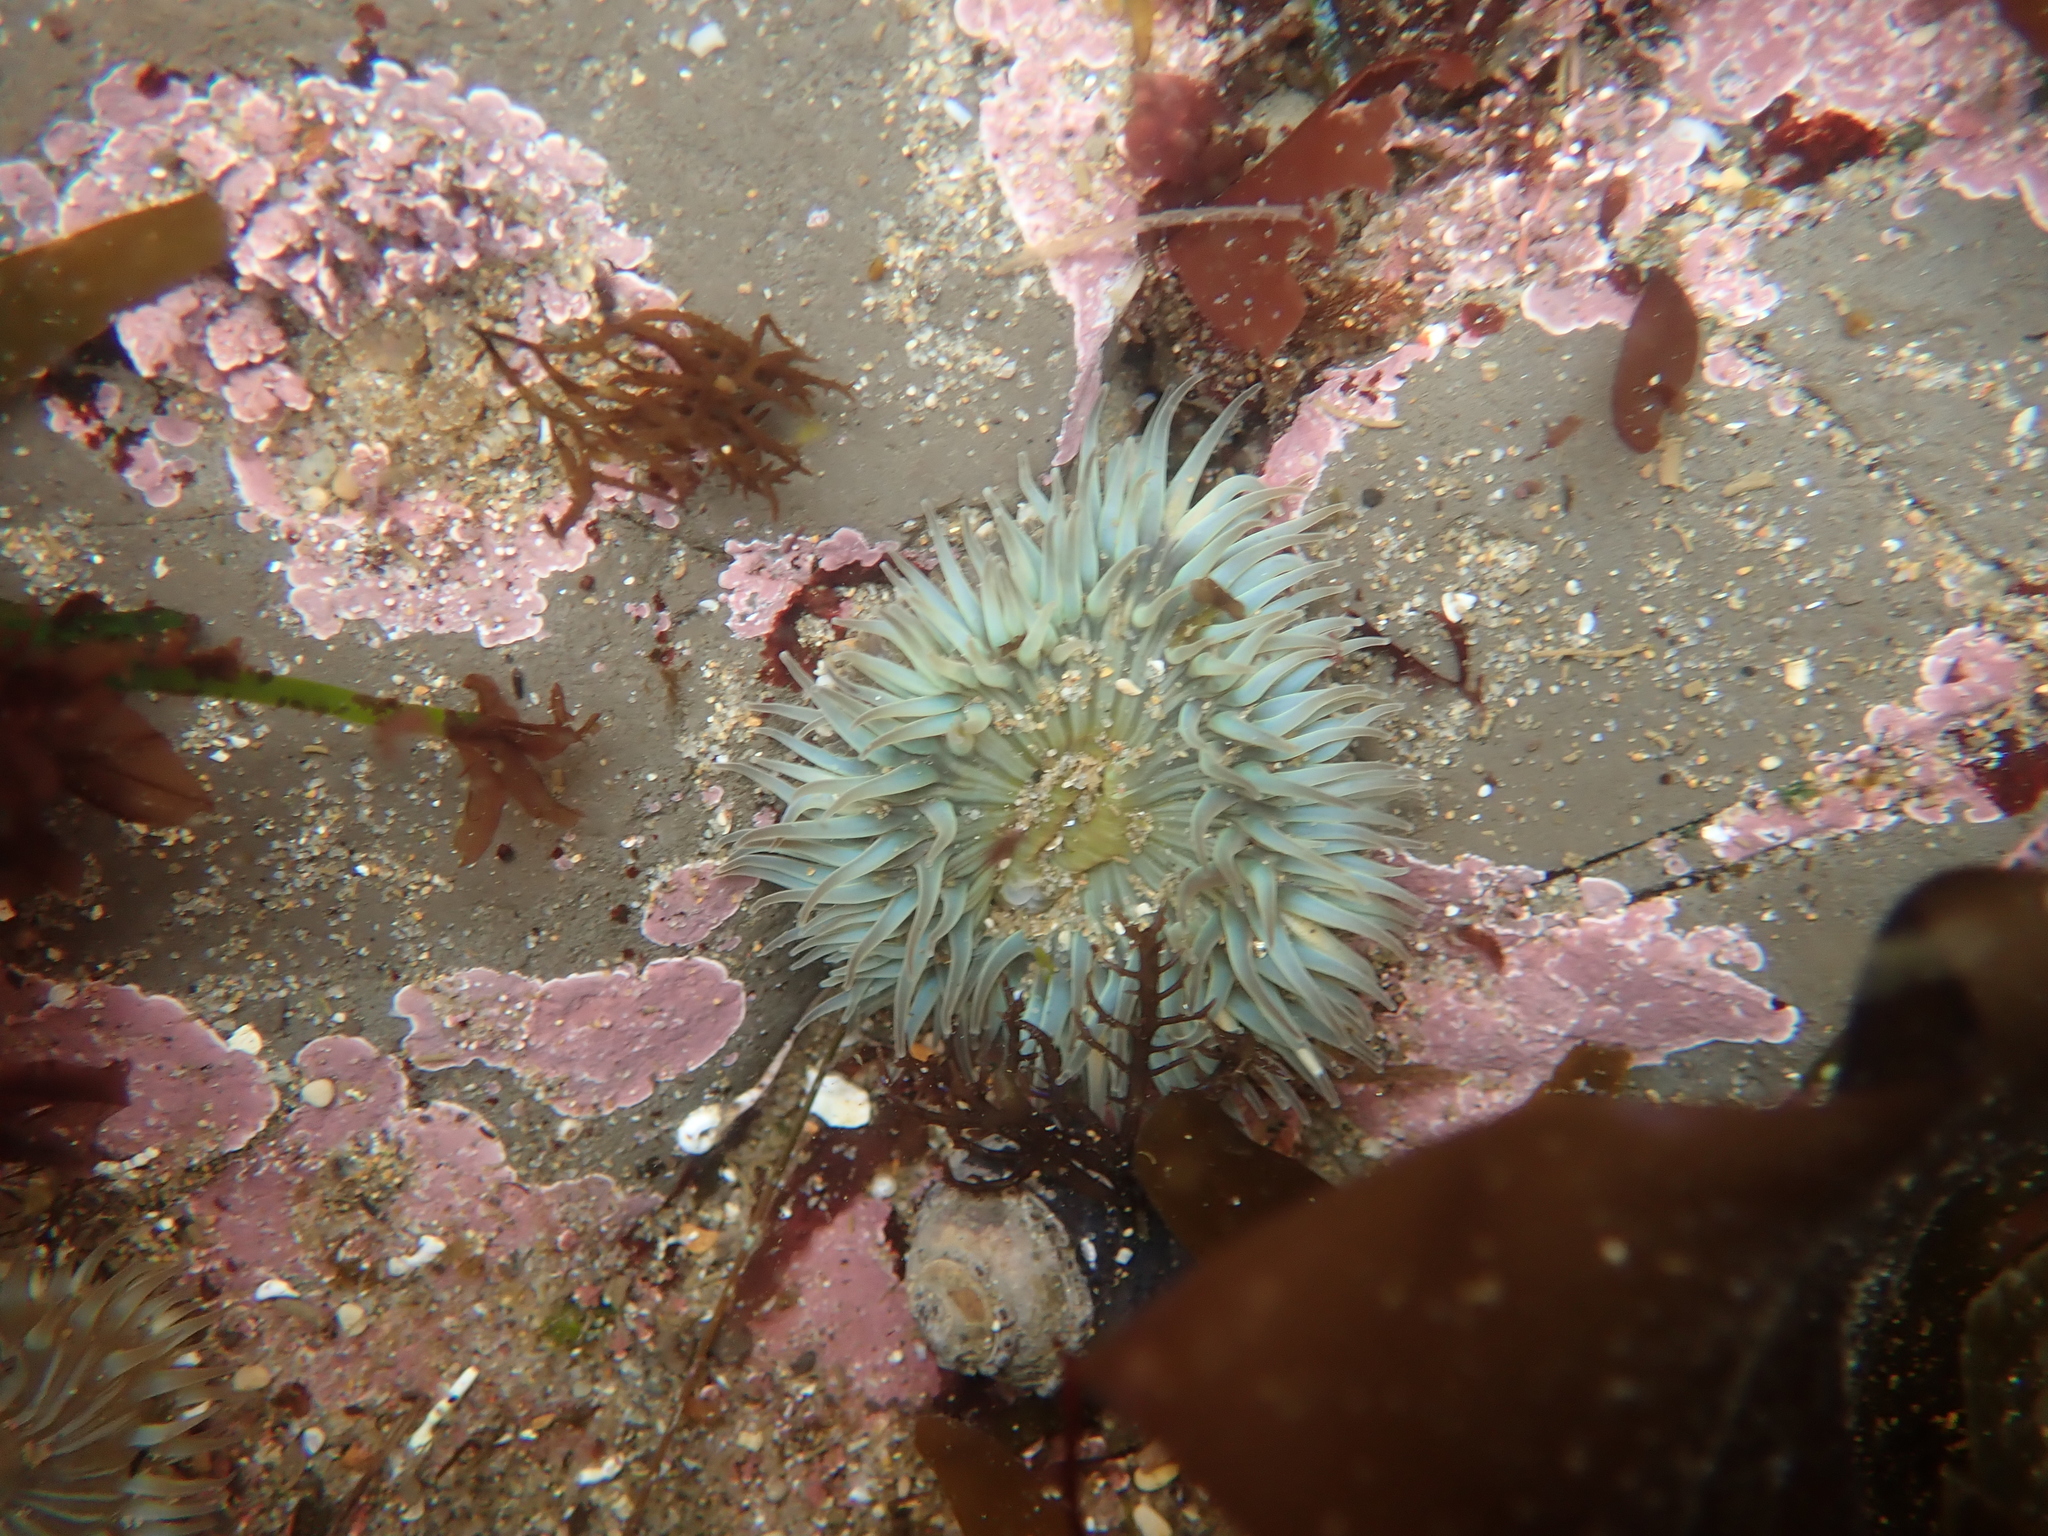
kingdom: Animalia
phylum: Cnidaria
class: Anthozoa
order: Actiniaria
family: Actiniidae
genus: Anthopleura
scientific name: Anthopleura sola
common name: Sun anemone
